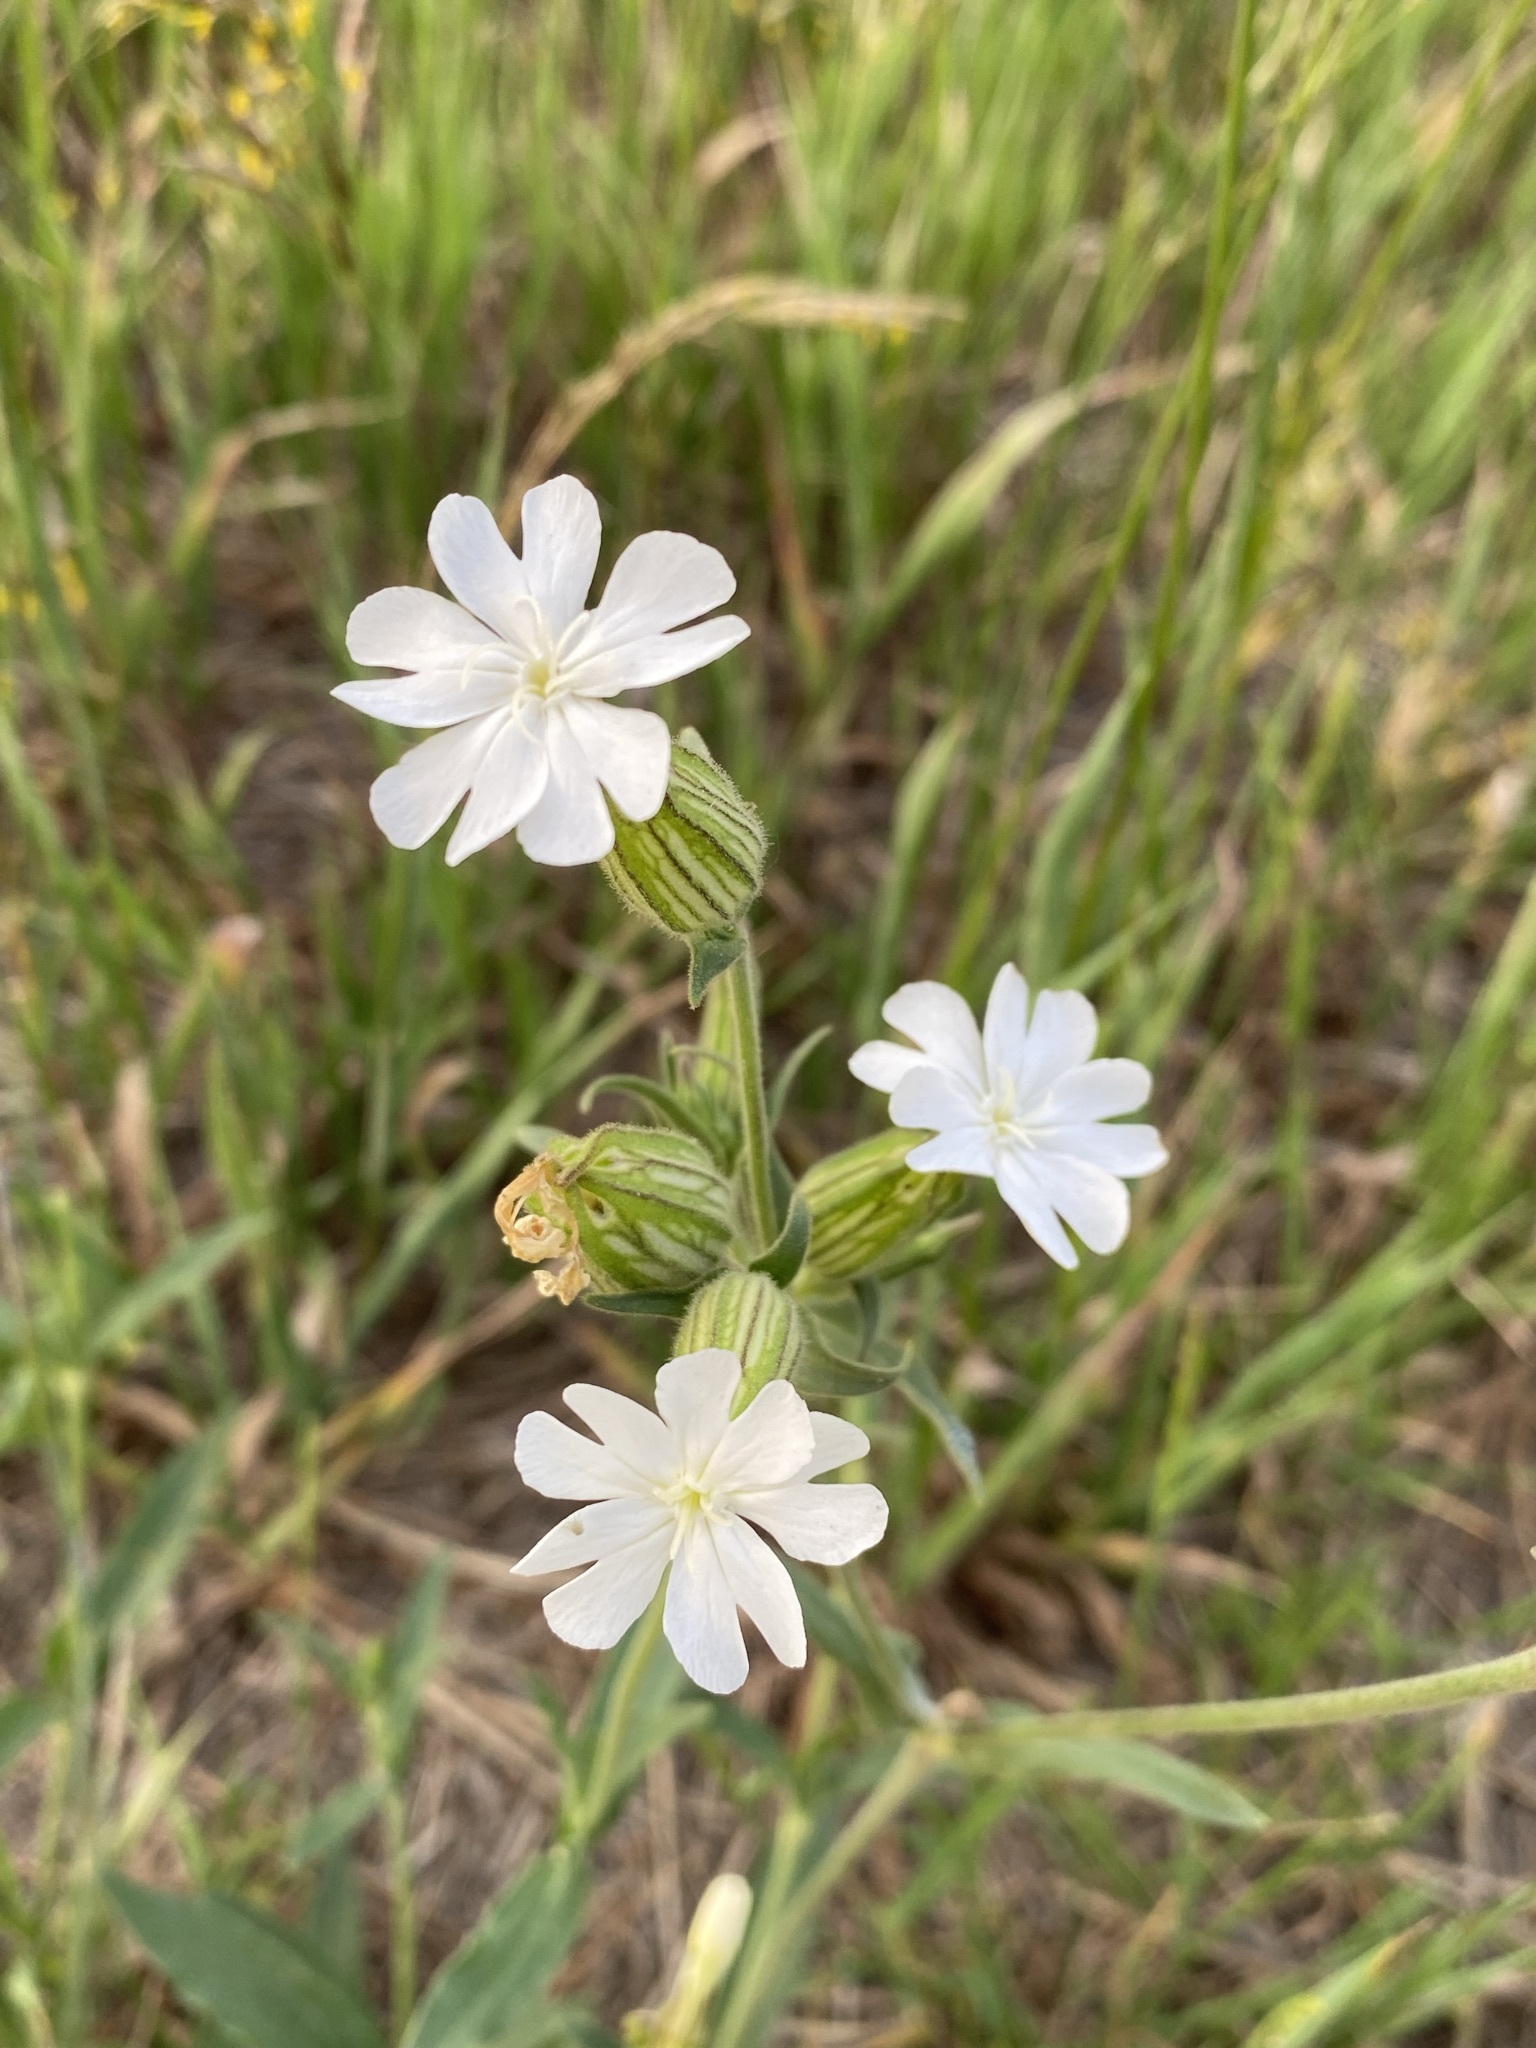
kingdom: Plantae
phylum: Tracheophyta
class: Magnoliopsida
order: Caryophyllales
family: Caryophyllaceae
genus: Silene
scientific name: Silene latifolia
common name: White campion
